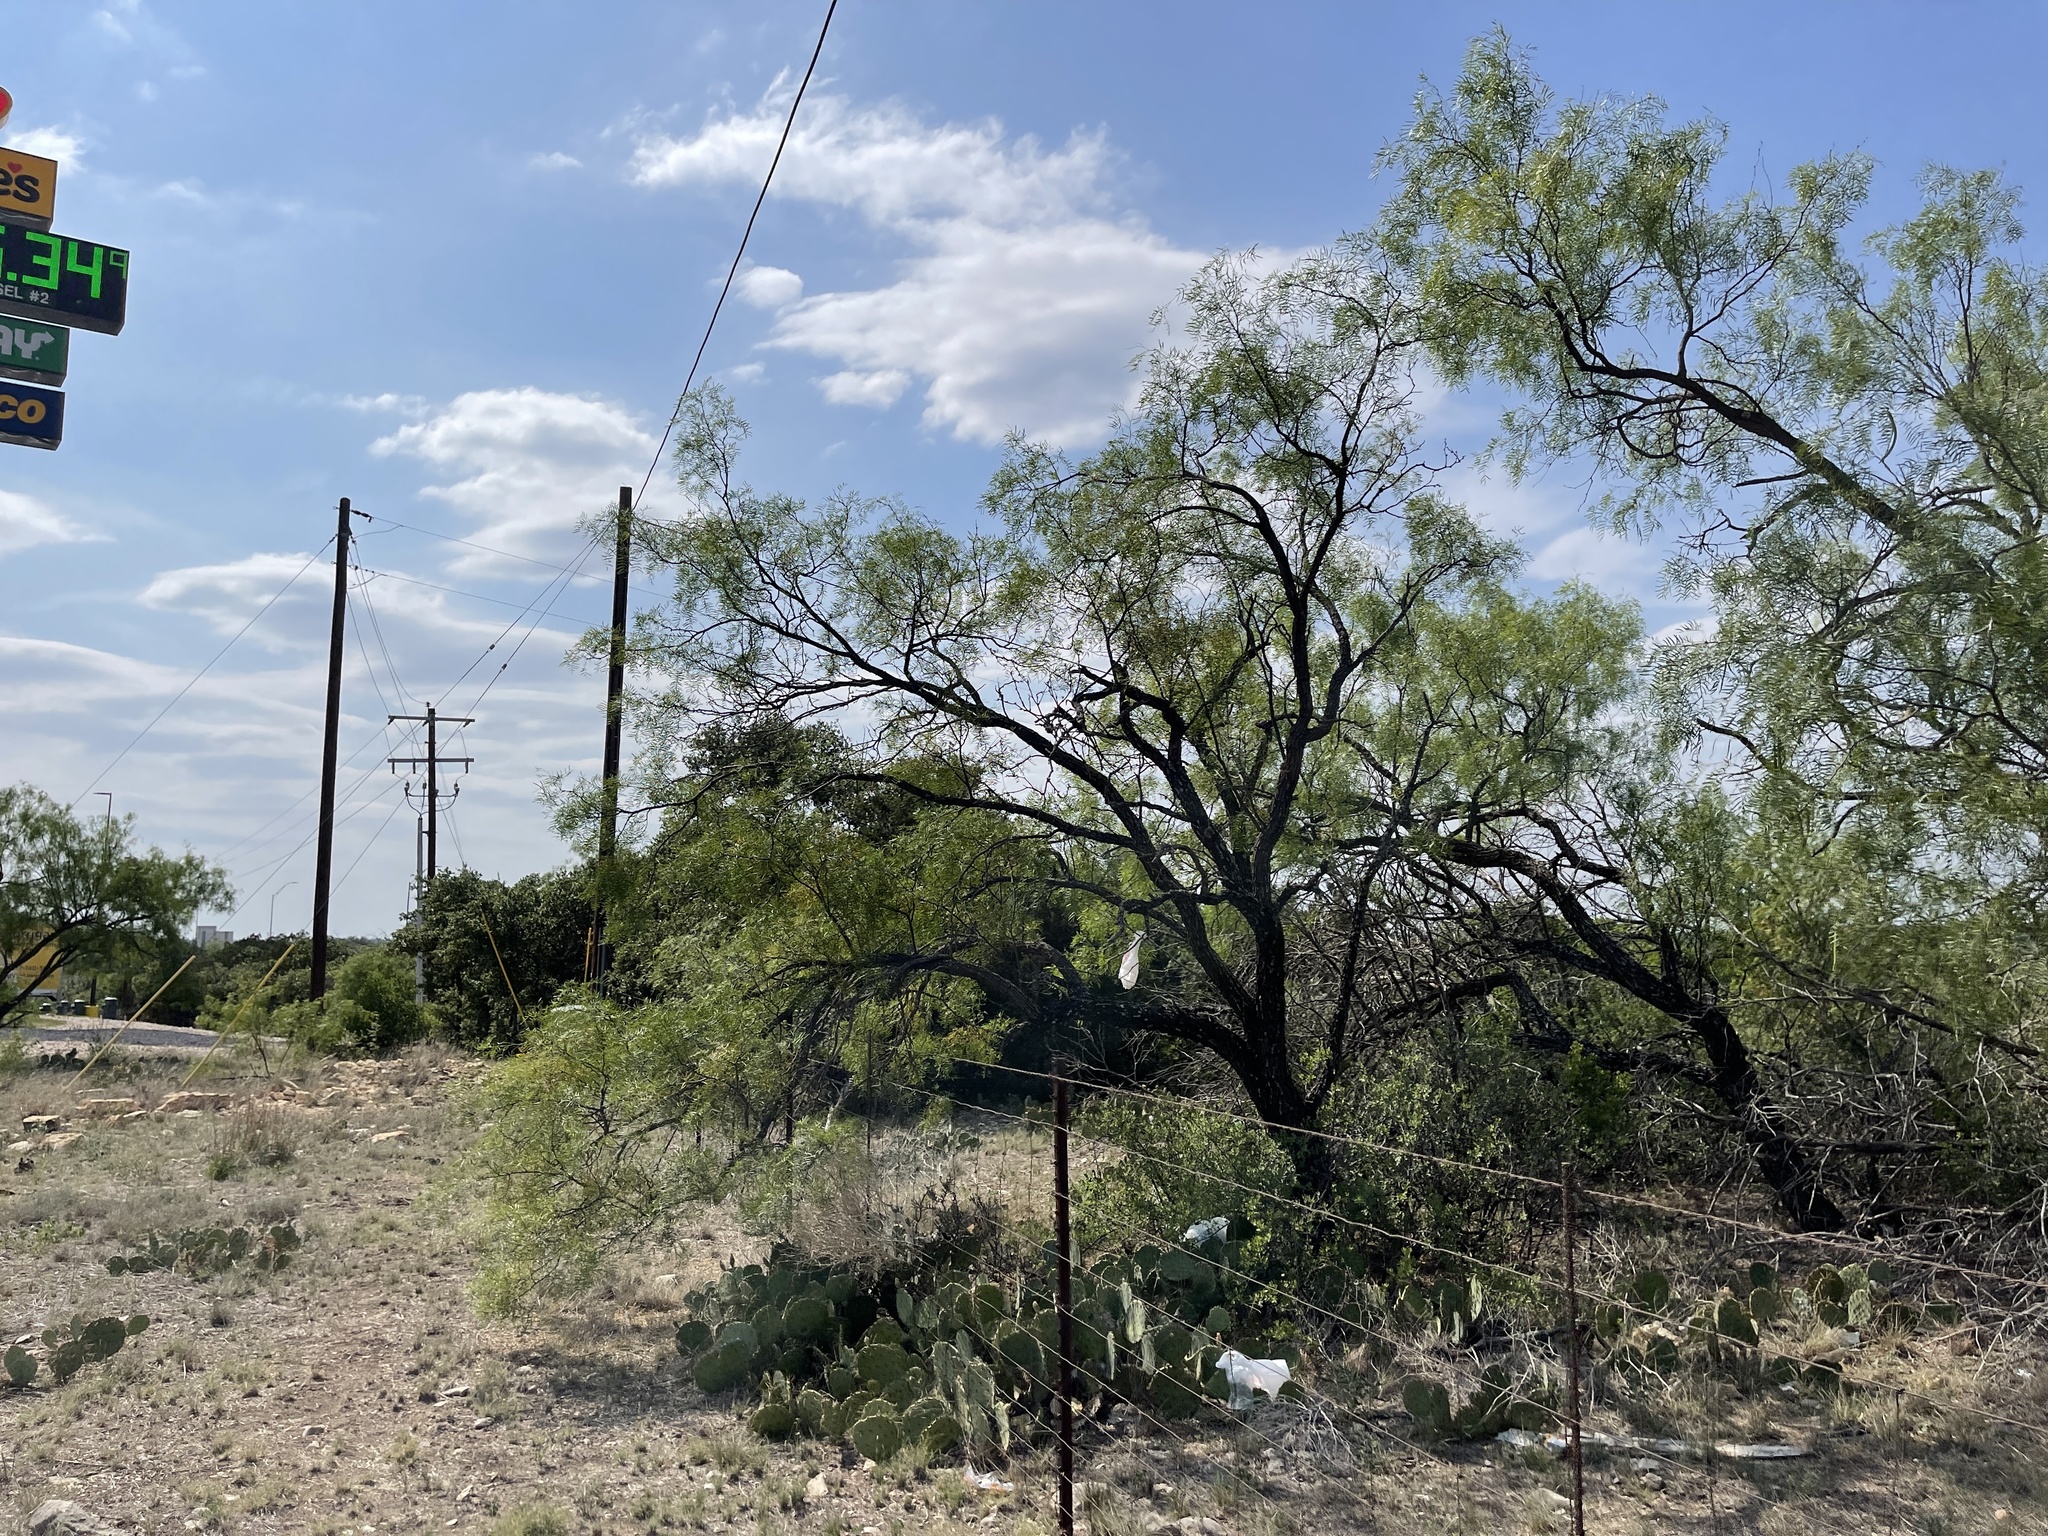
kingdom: Plantae
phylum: Tracheophyta
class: Magnoliopsida
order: Fabales
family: Fabaceae
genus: Prosopis
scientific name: Prosopis glandulosa
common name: Honey mesquite
